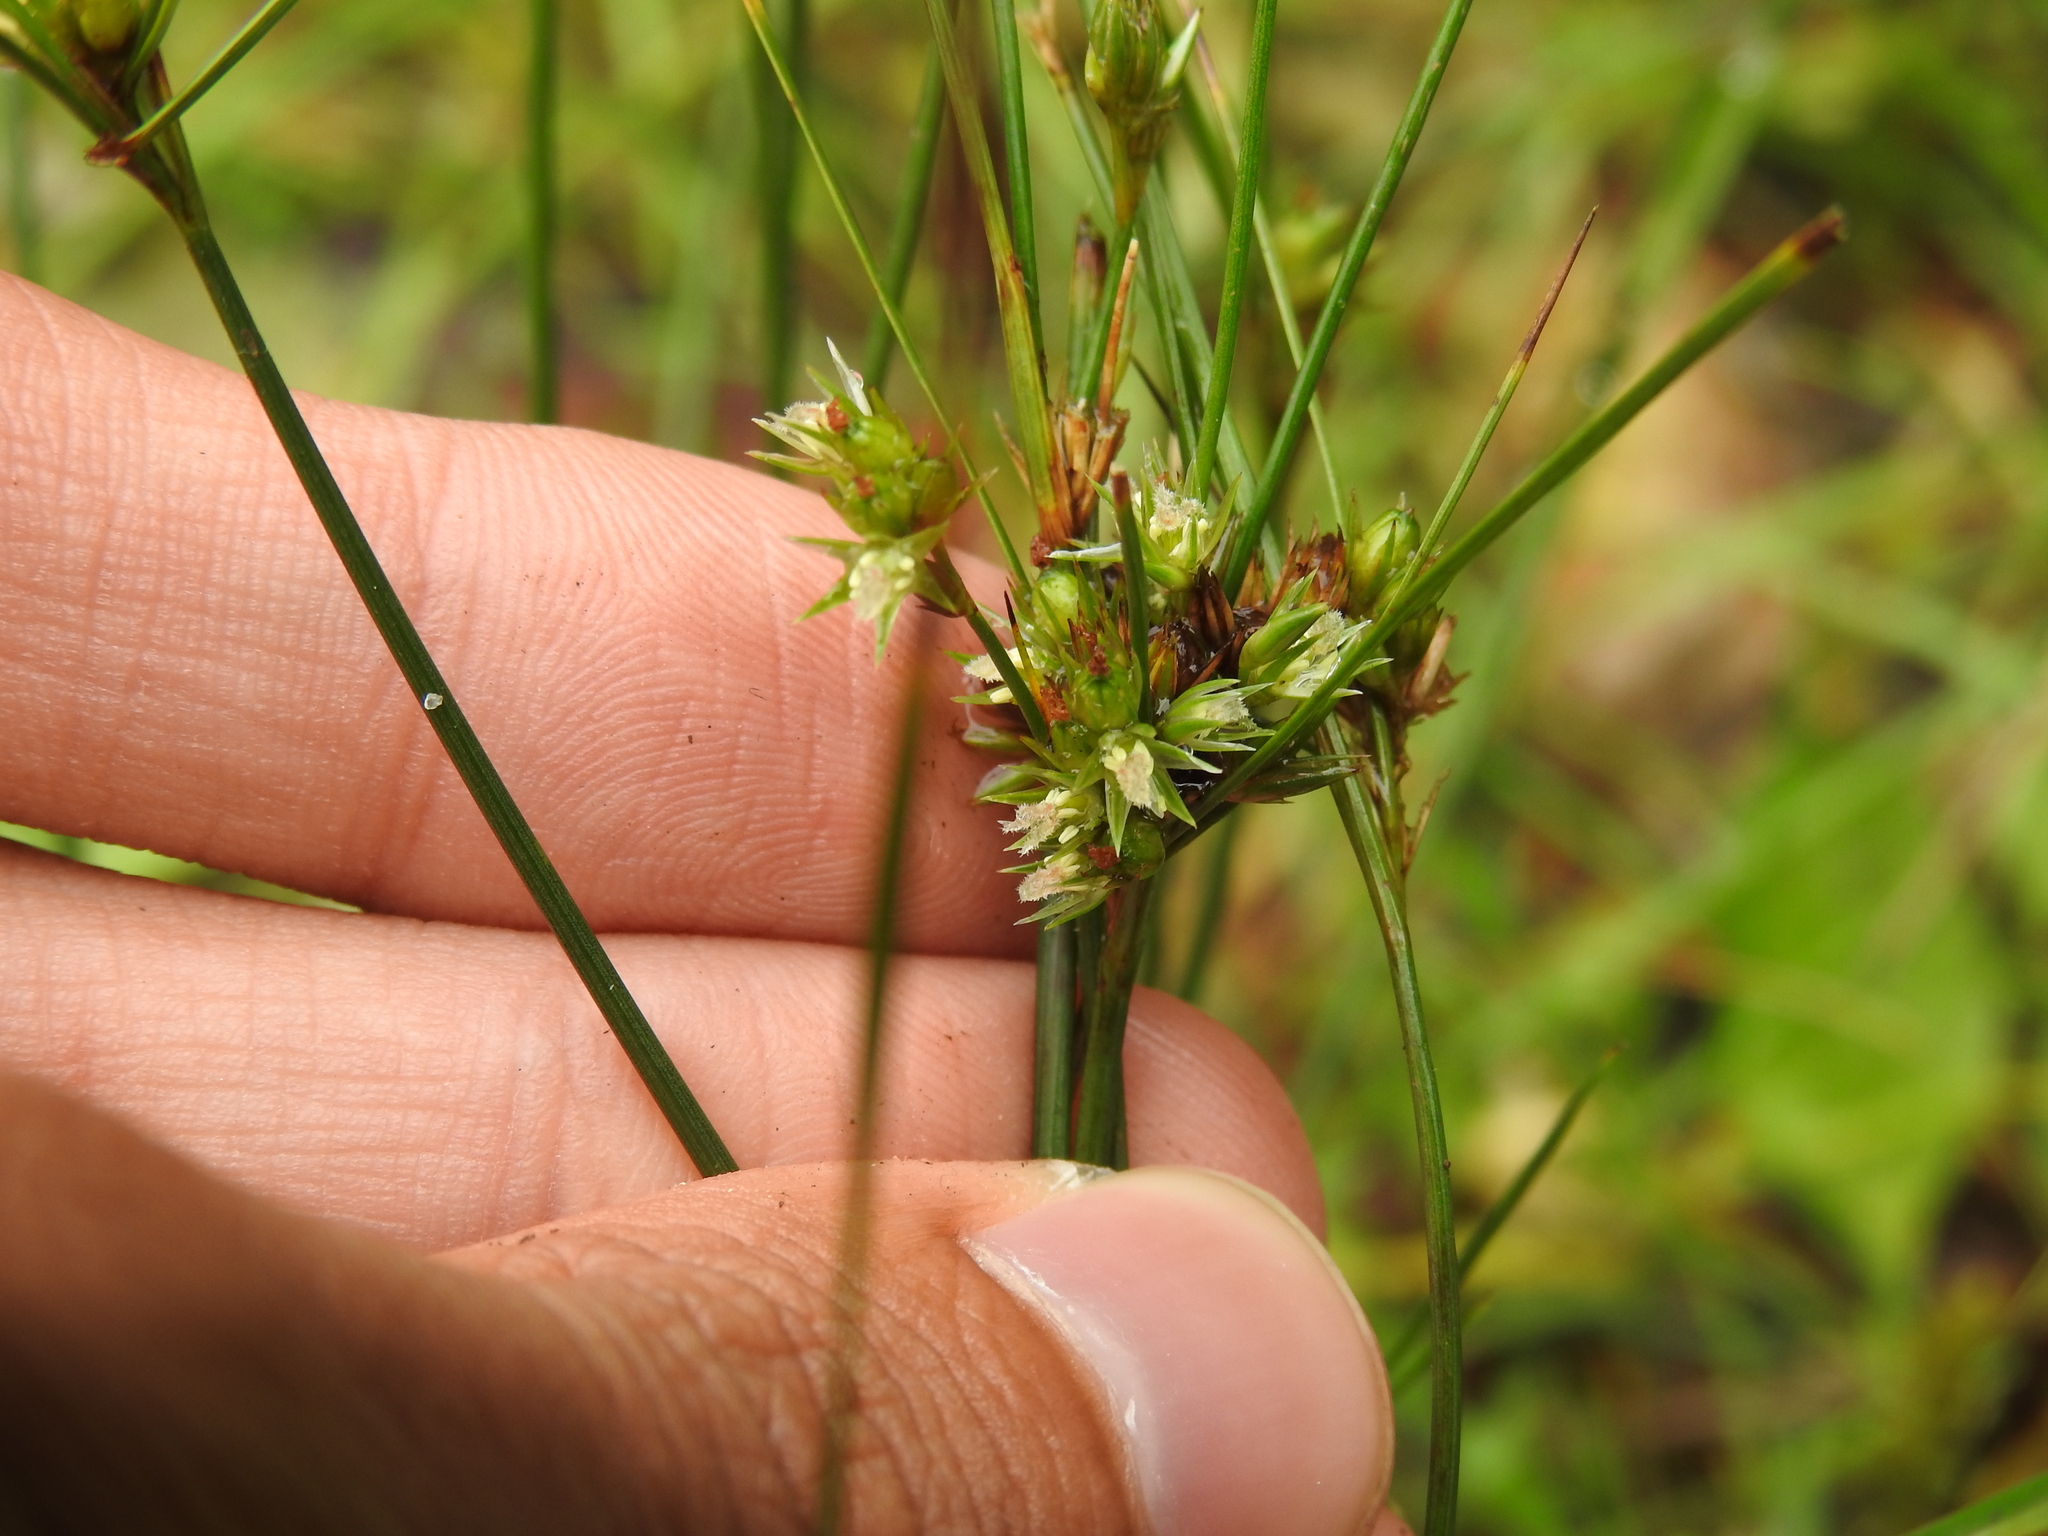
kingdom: Plantae
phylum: Tracheophyta
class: Liliopsida
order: Poales
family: Juncaceae
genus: Juncus
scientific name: Juncus tenuis
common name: Slender rush
